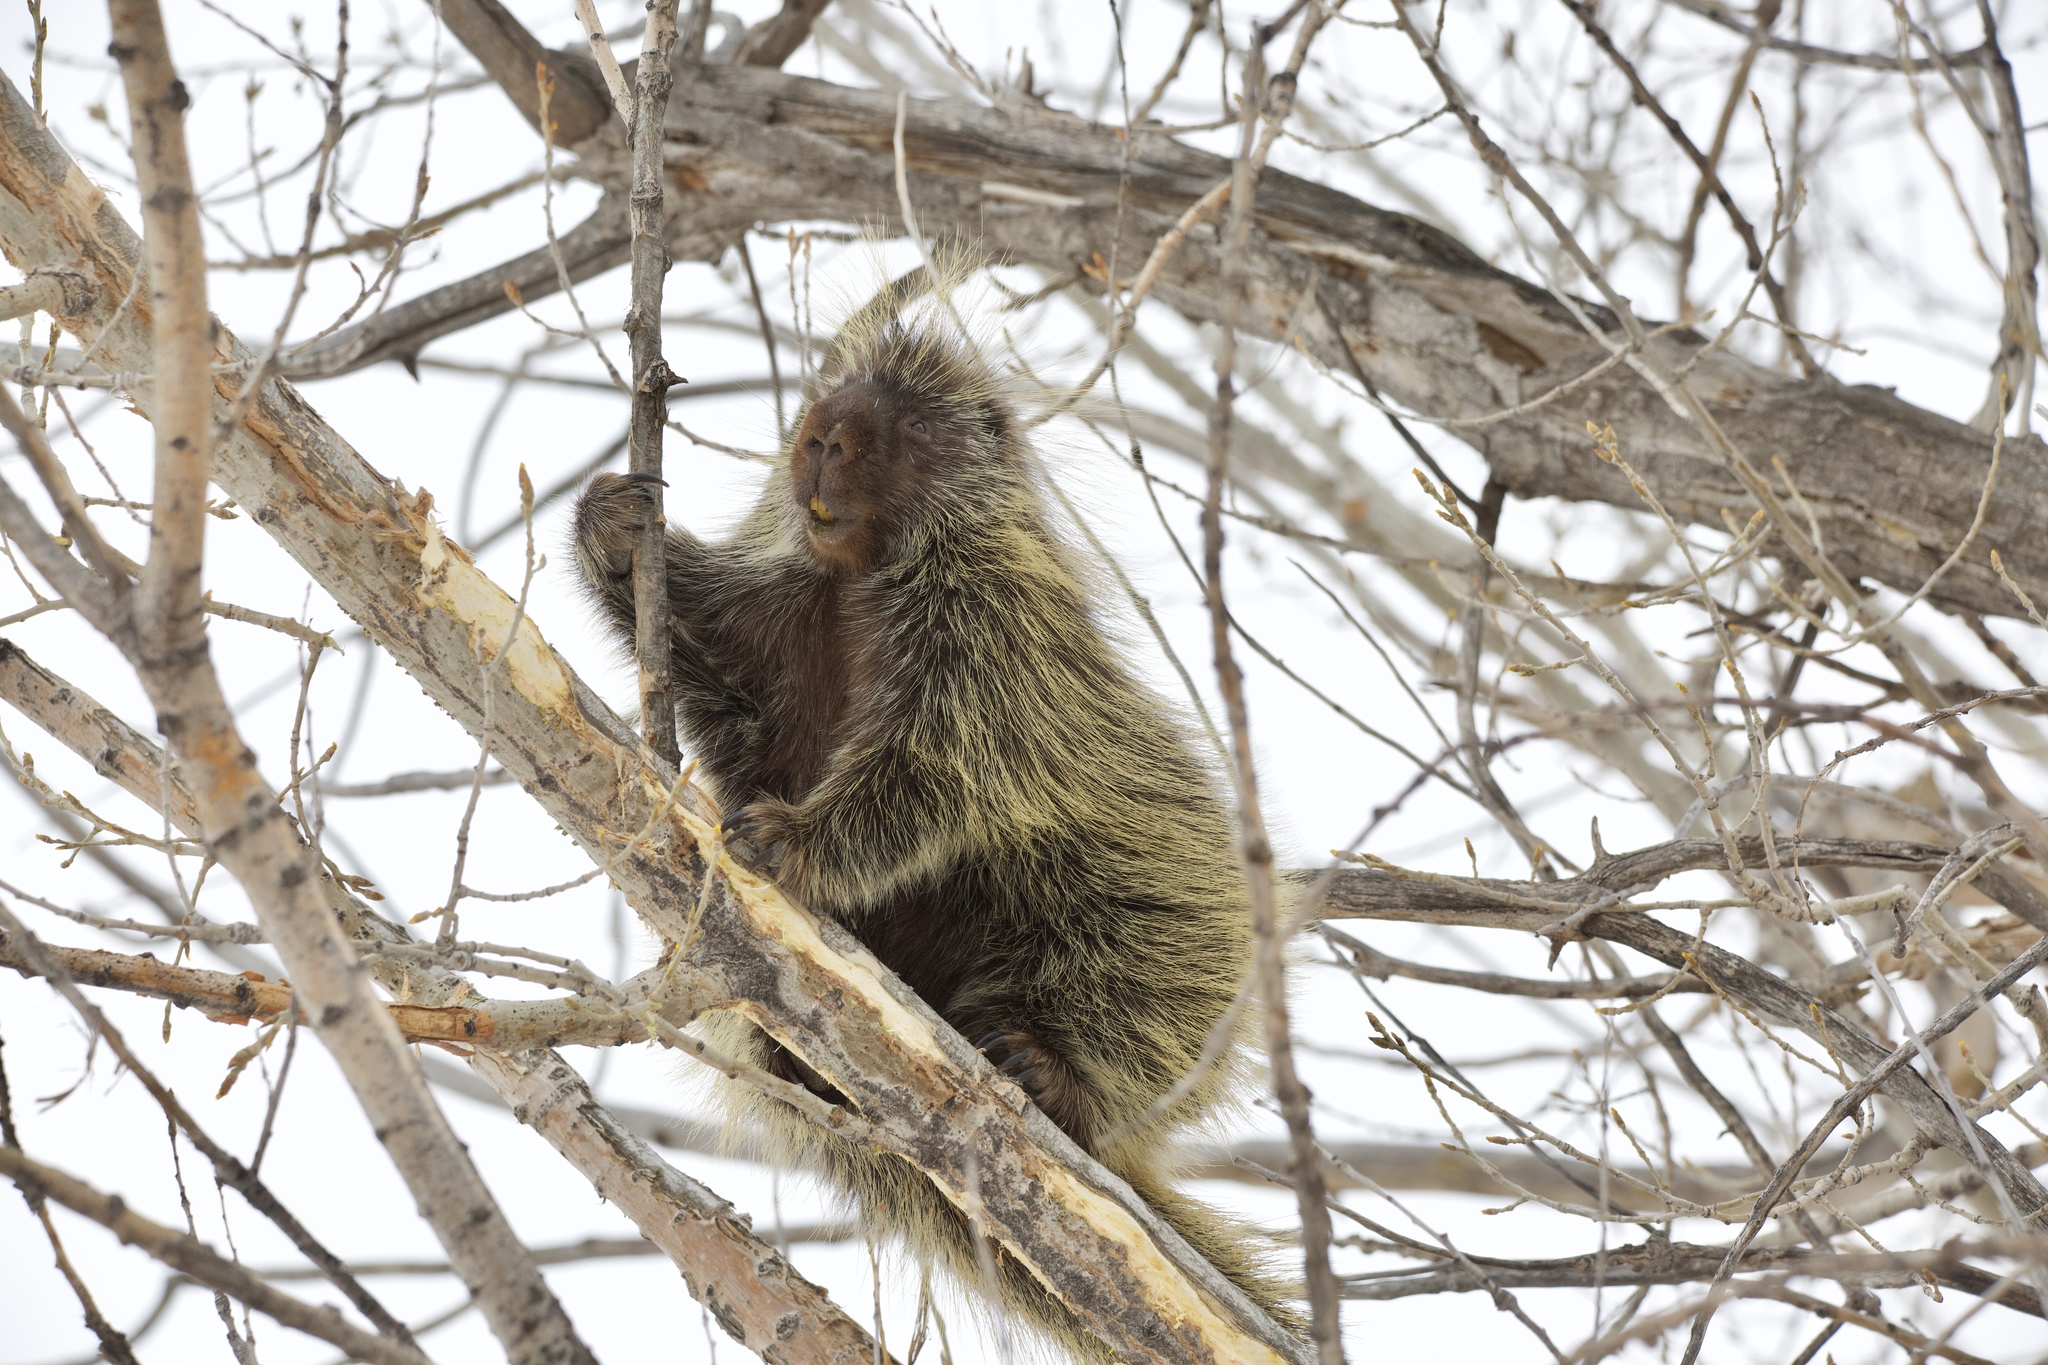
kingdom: Animalia
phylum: Chordata
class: Mammalia
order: Rodentia
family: Erethizontidae
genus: Erethizon
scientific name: Erethizon dorsatus
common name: North american porcupine
